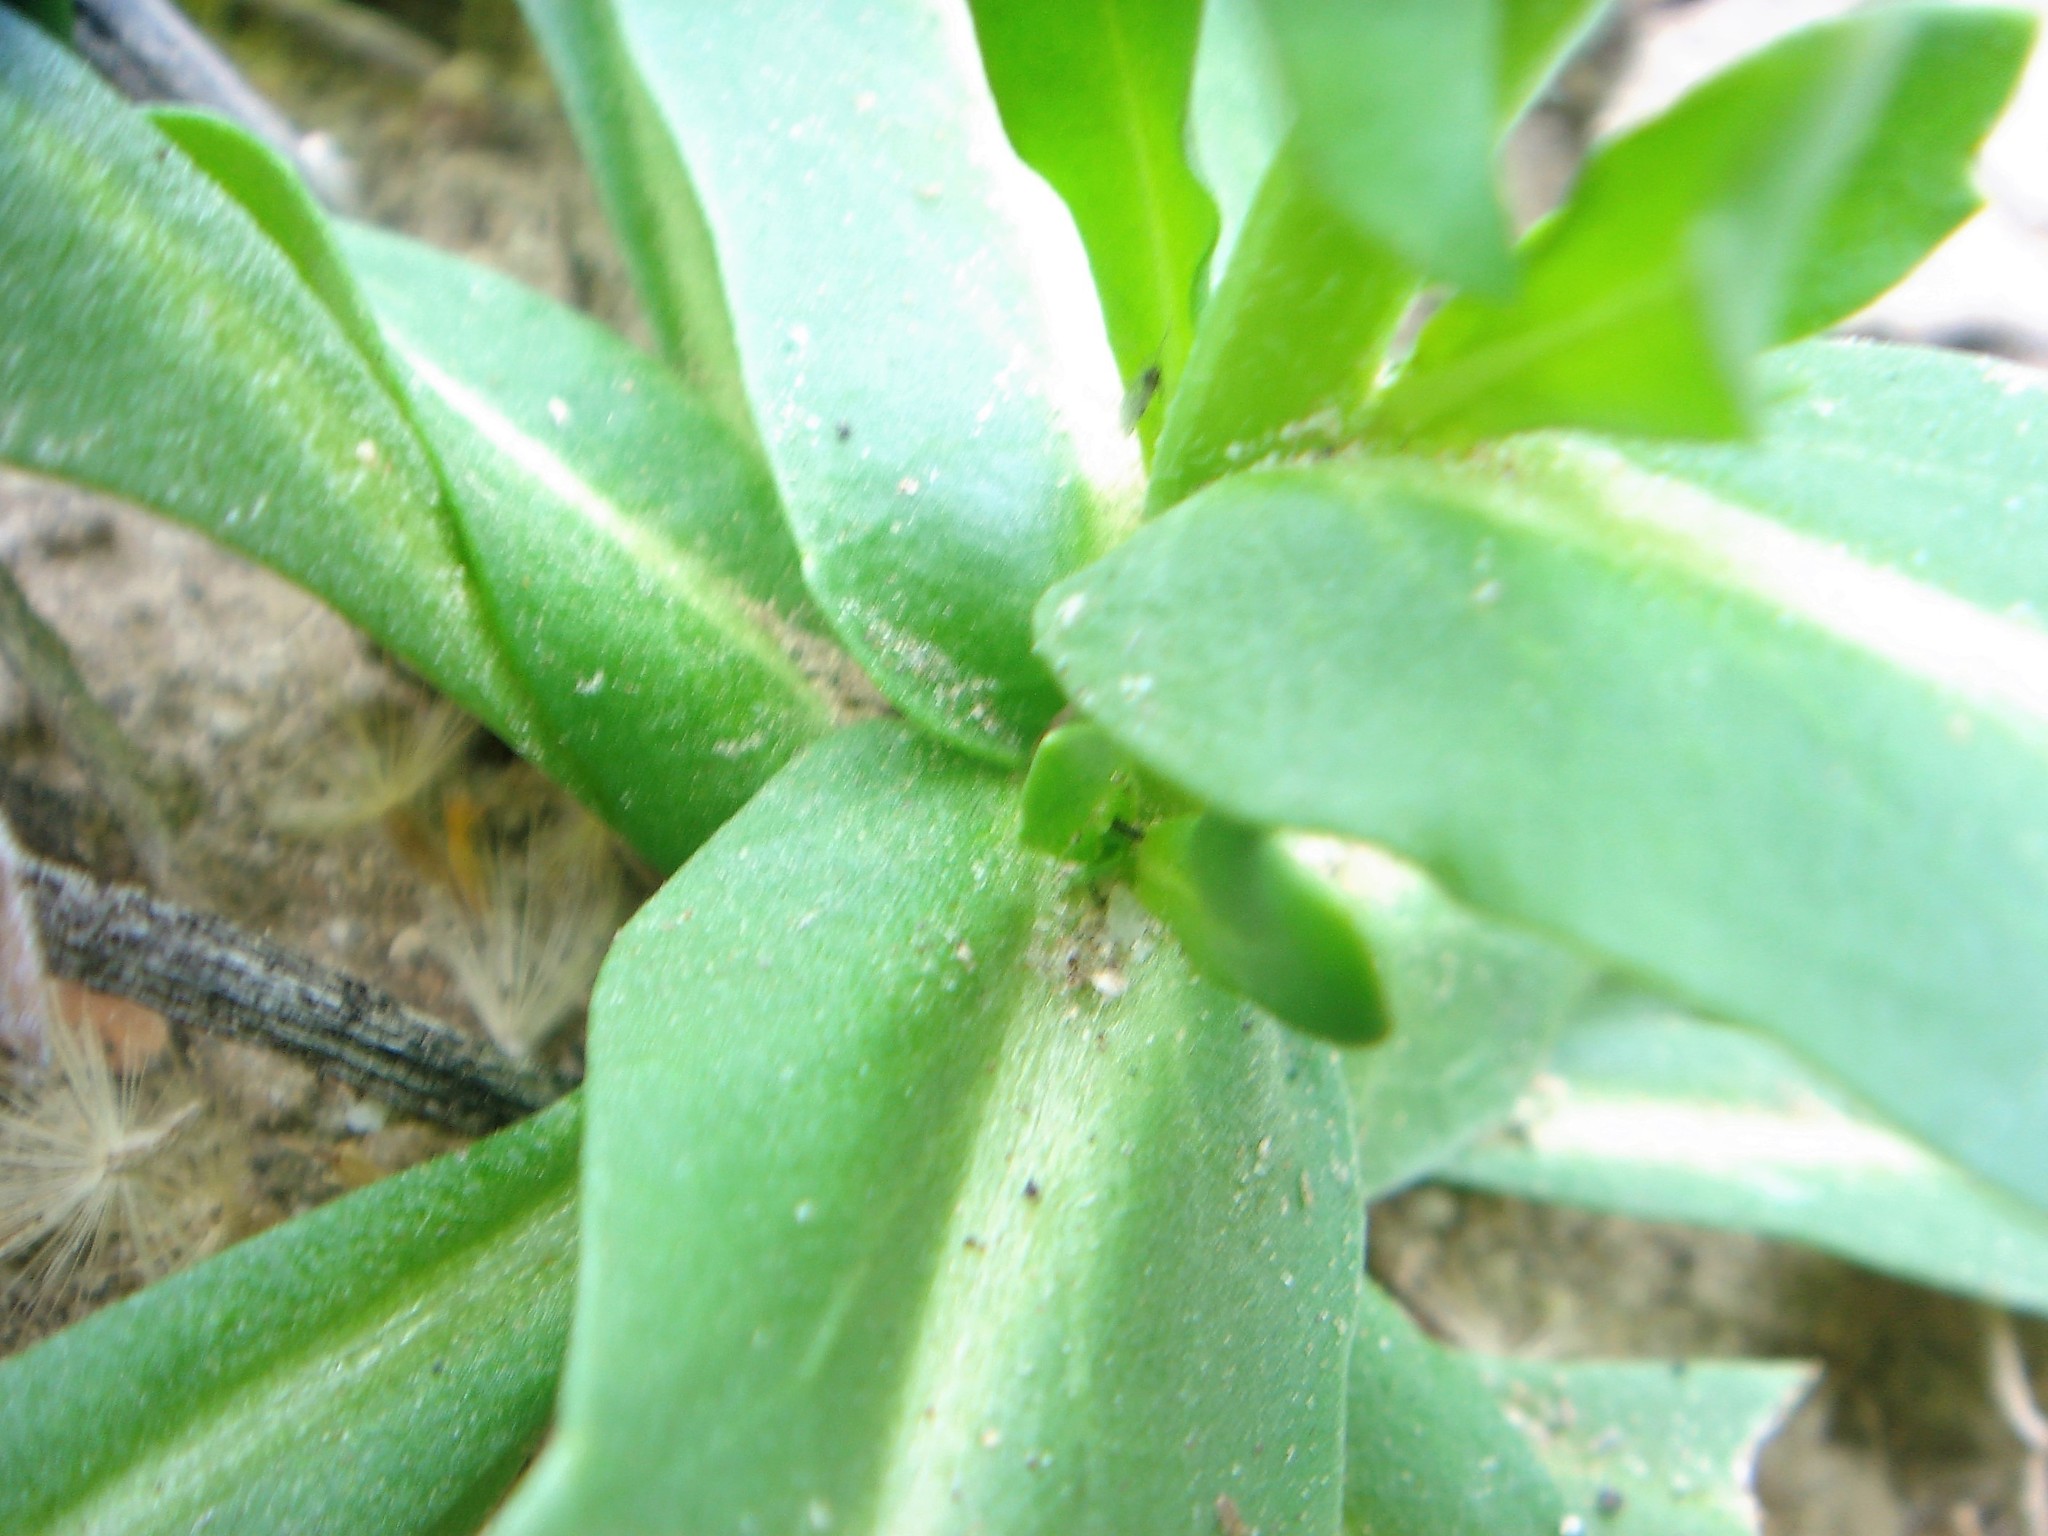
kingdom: Plantae
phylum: Tracheophyta
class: Magnoliopsida
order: Brassicales
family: Brassicaceae
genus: Streptanthus
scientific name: Streptanthus cooperi
